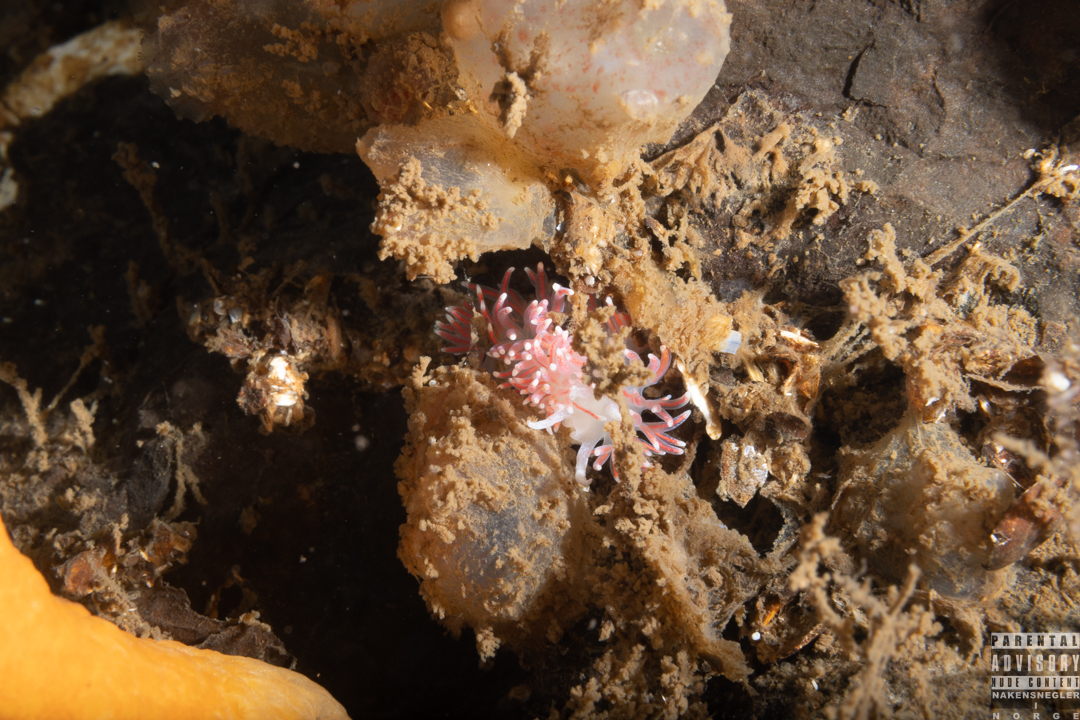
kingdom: Animalia
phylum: Mollusca
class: Gastropoda
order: Nudibranchia
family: Flabellinidae
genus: Carronella
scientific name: Carronella pellucida
